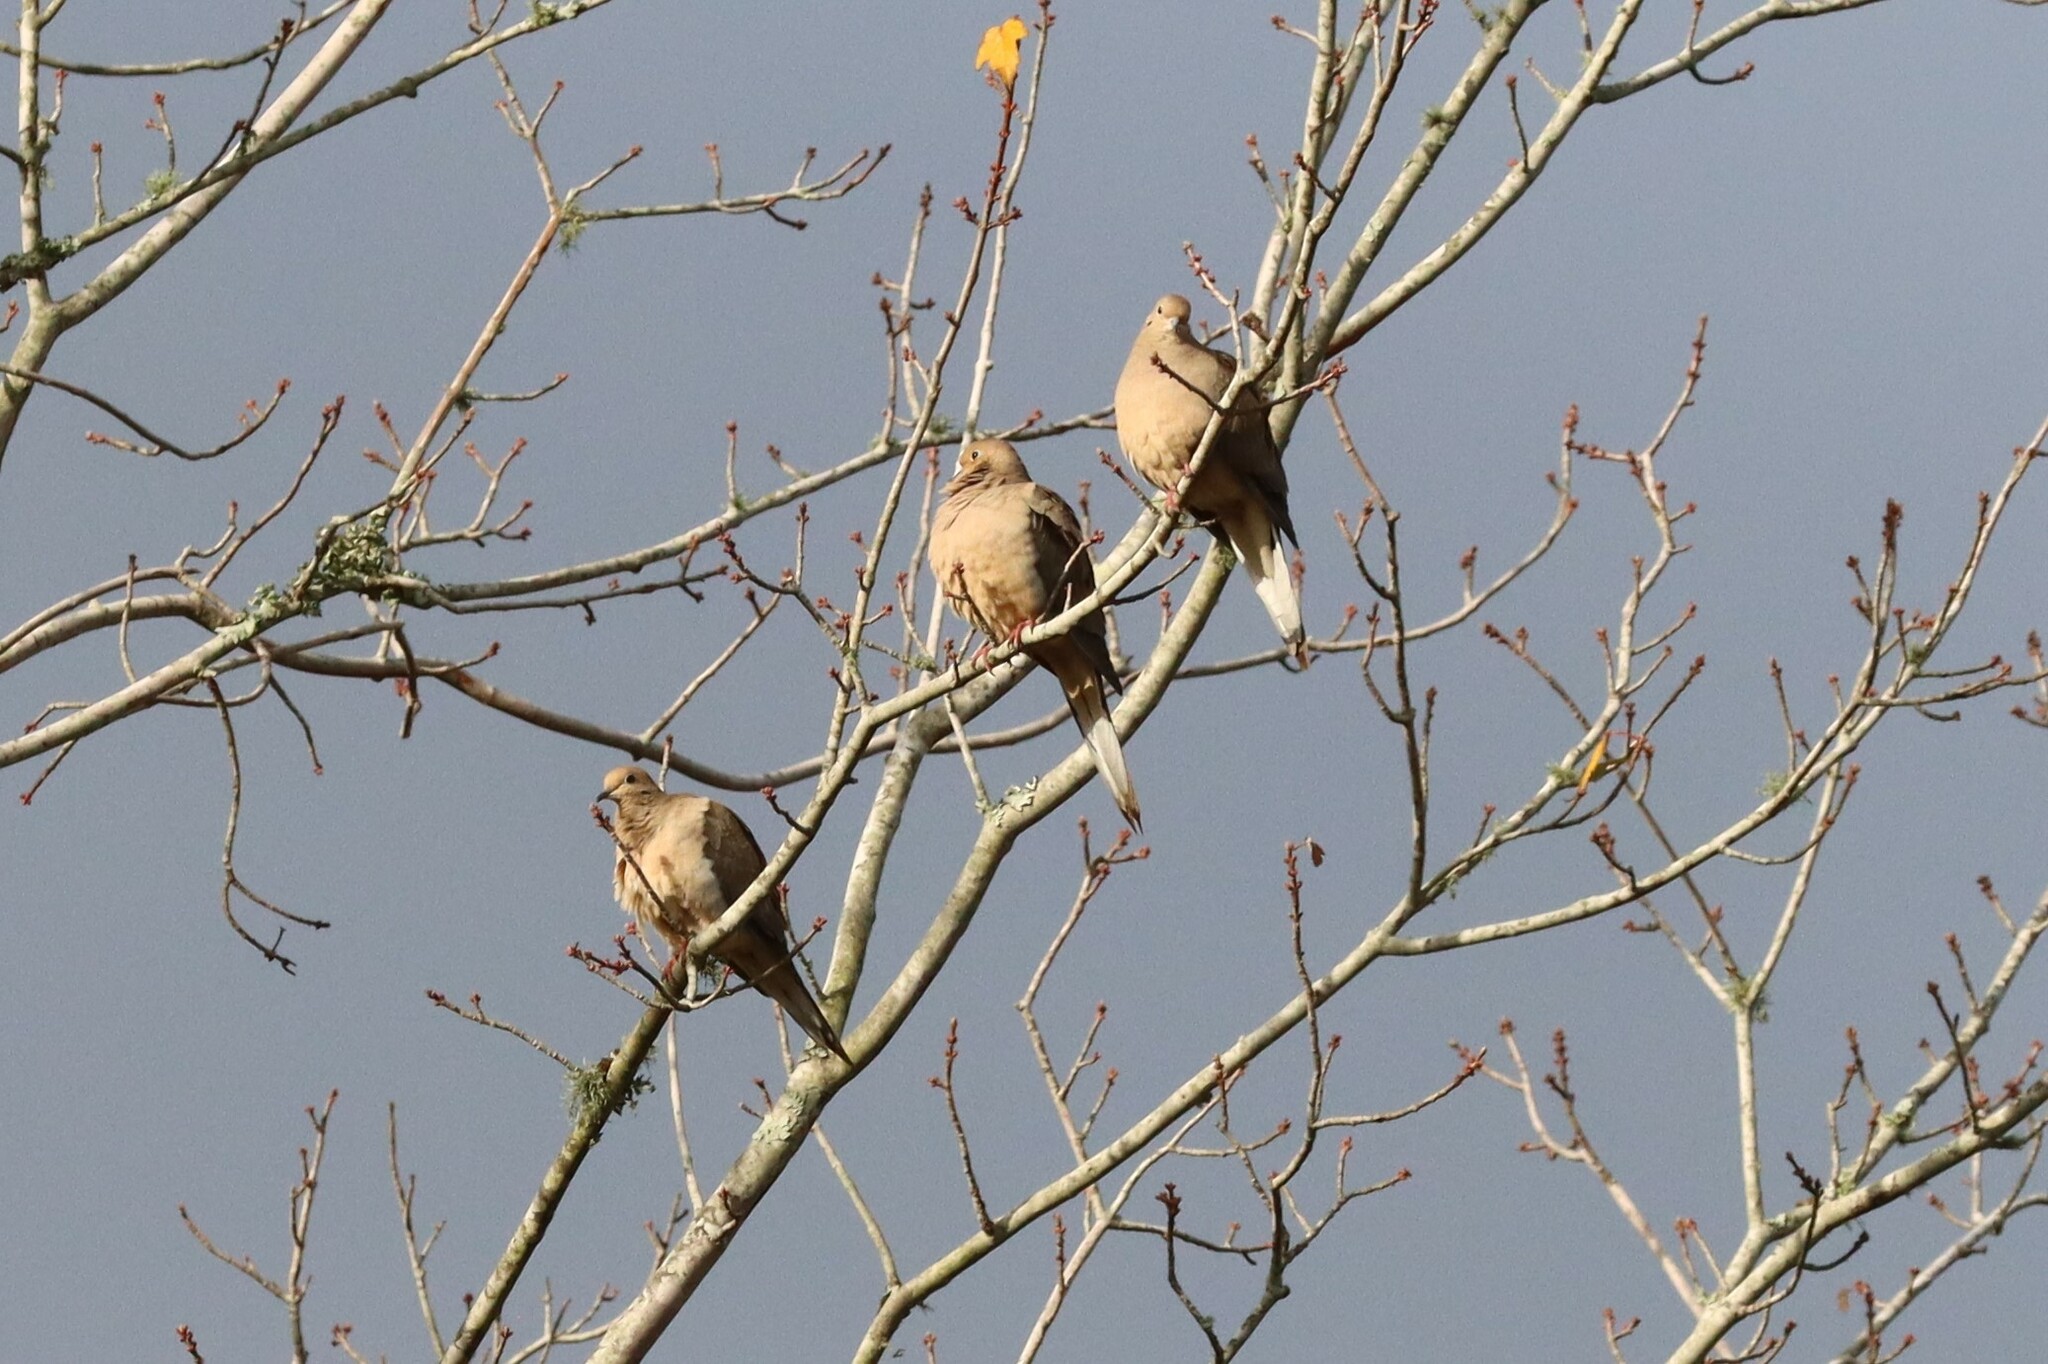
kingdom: Animalia
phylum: Chordata
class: Aves
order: Columbiformes
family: Columbidae
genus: Zenaida
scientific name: Zenaida macroura
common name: Mourning dove
